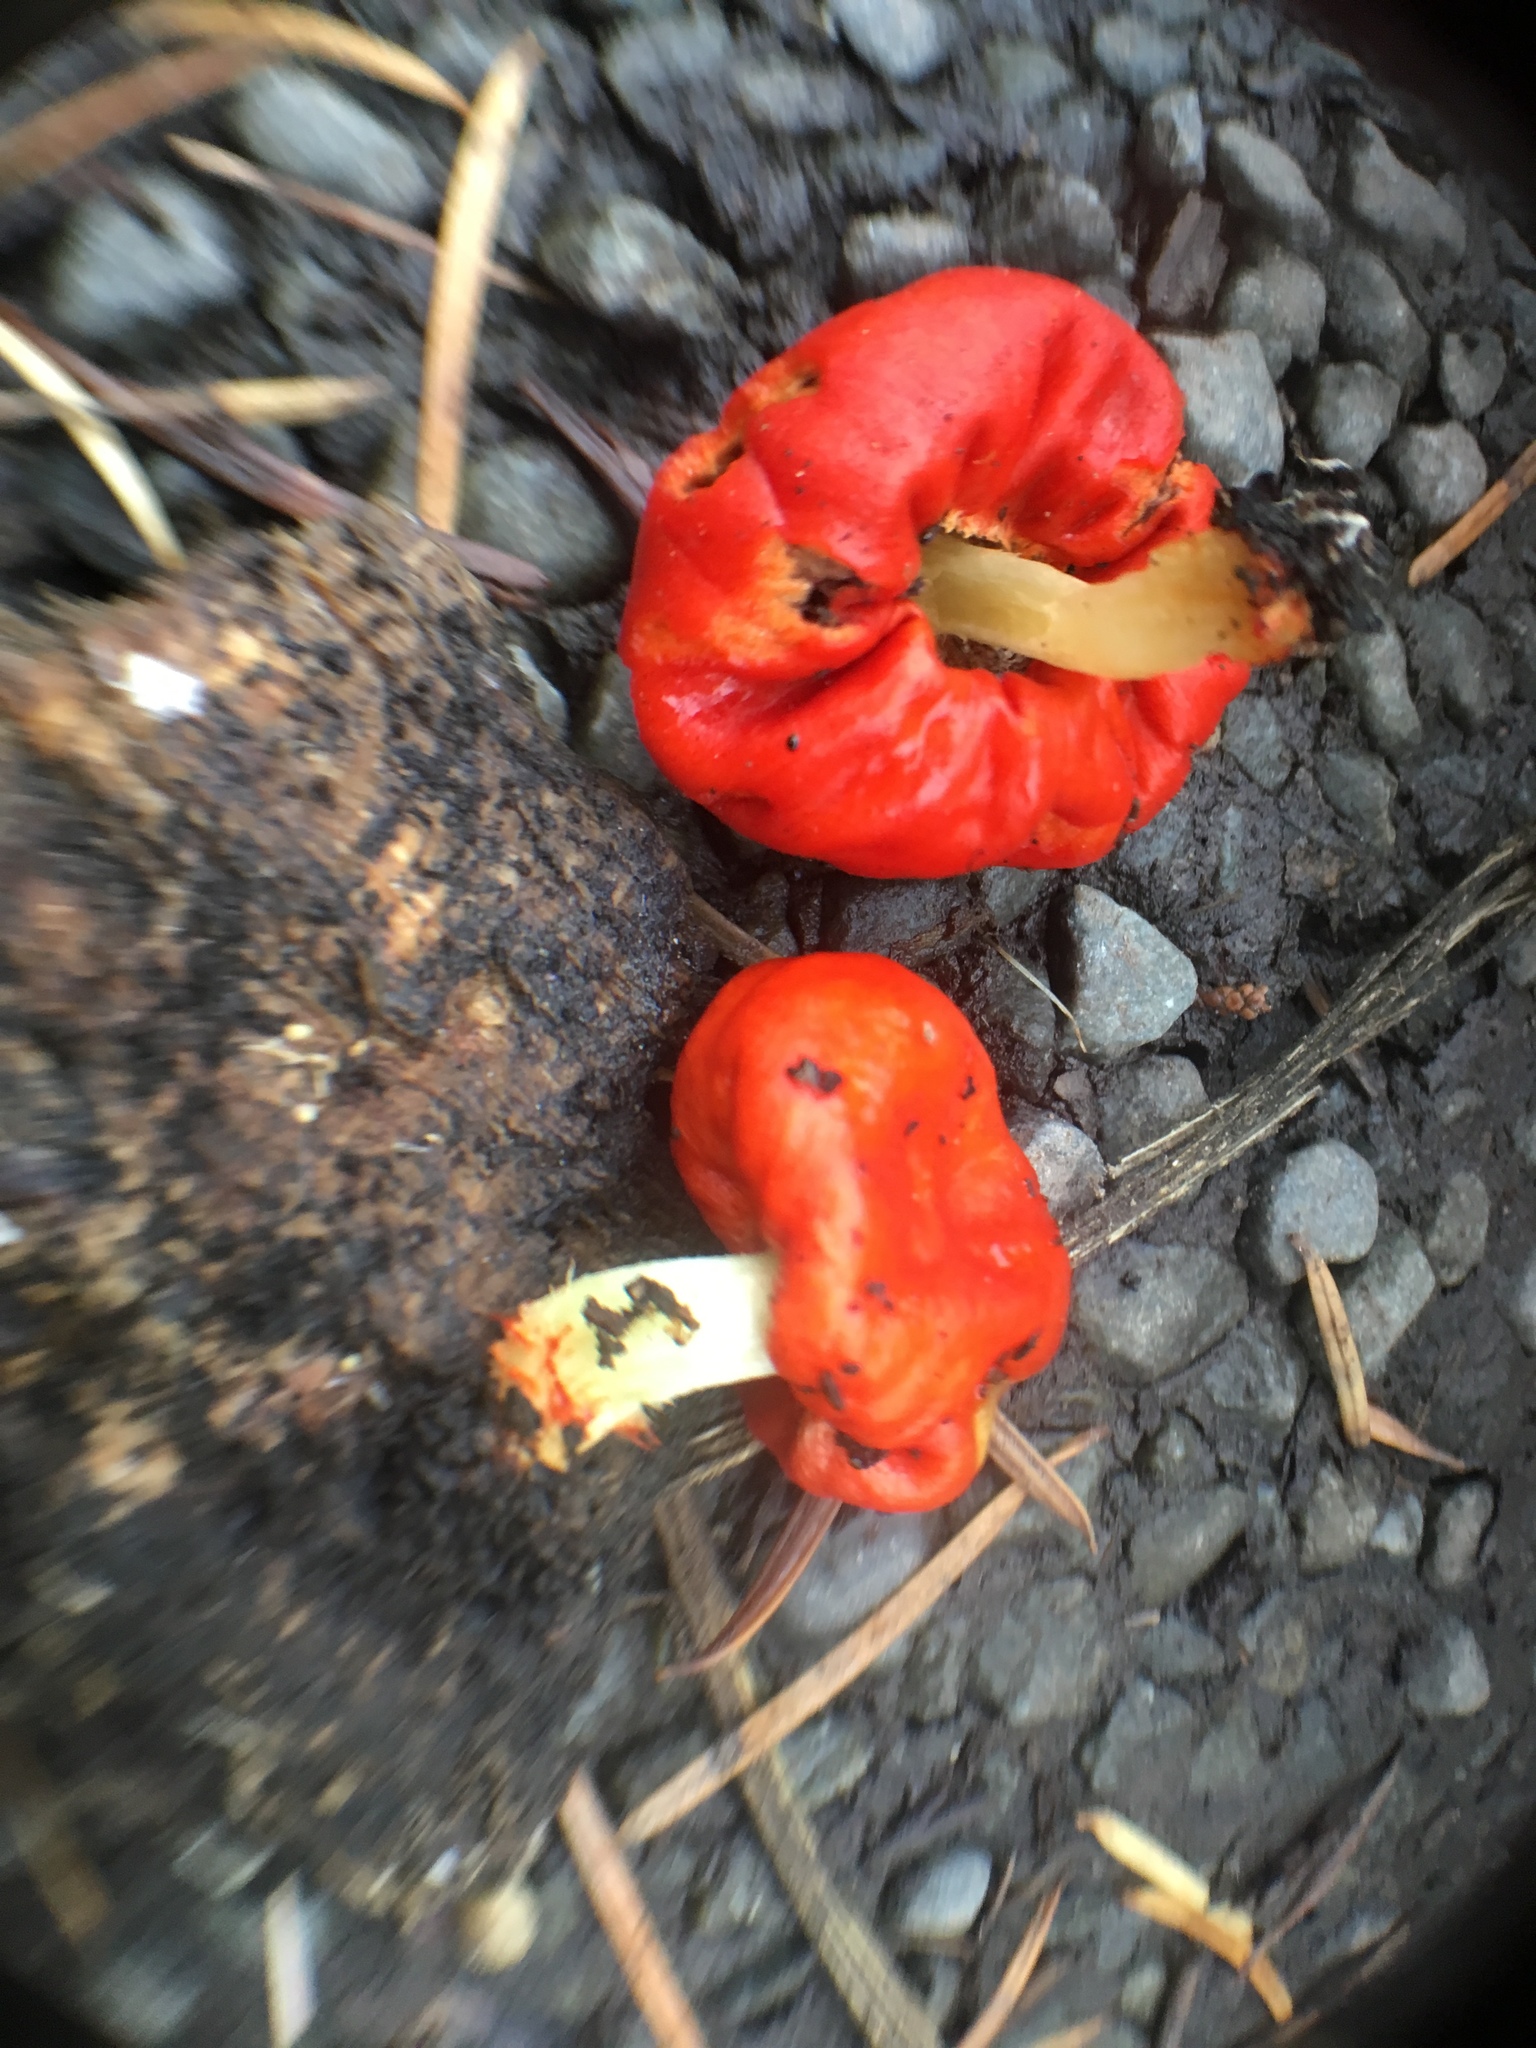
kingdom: Fungi
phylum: Basidiomycota
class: Agaricomycetes
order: Agaricales
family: Strophariaceae
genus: Leratiomyces
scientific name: Leratiomyces erythrocephalus
